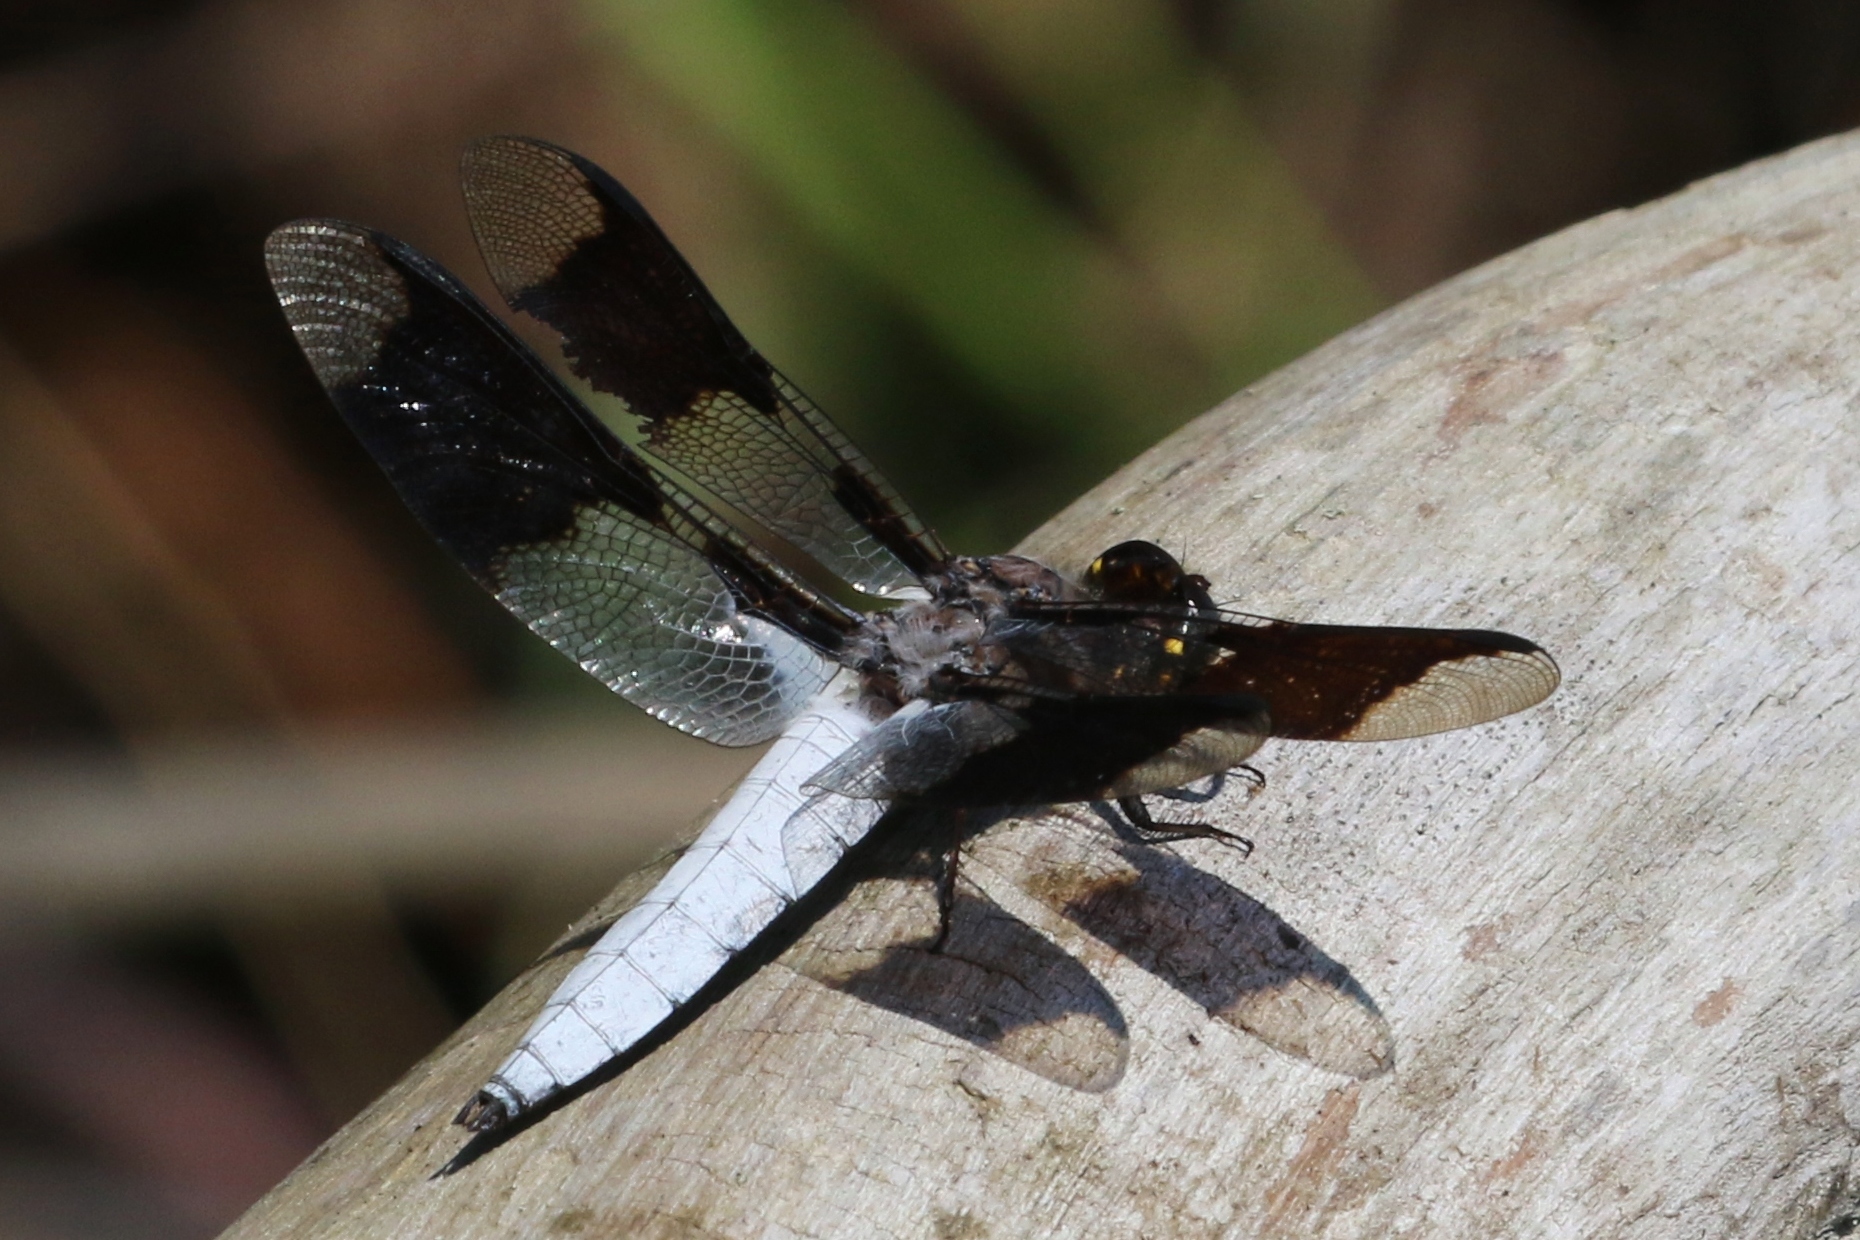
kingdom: Animalia
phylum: Arthropoda
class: Insecta
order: Odonata
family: Libellulidae
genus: Plathemis
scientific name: Plathemis lydia
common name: Common whitetail
